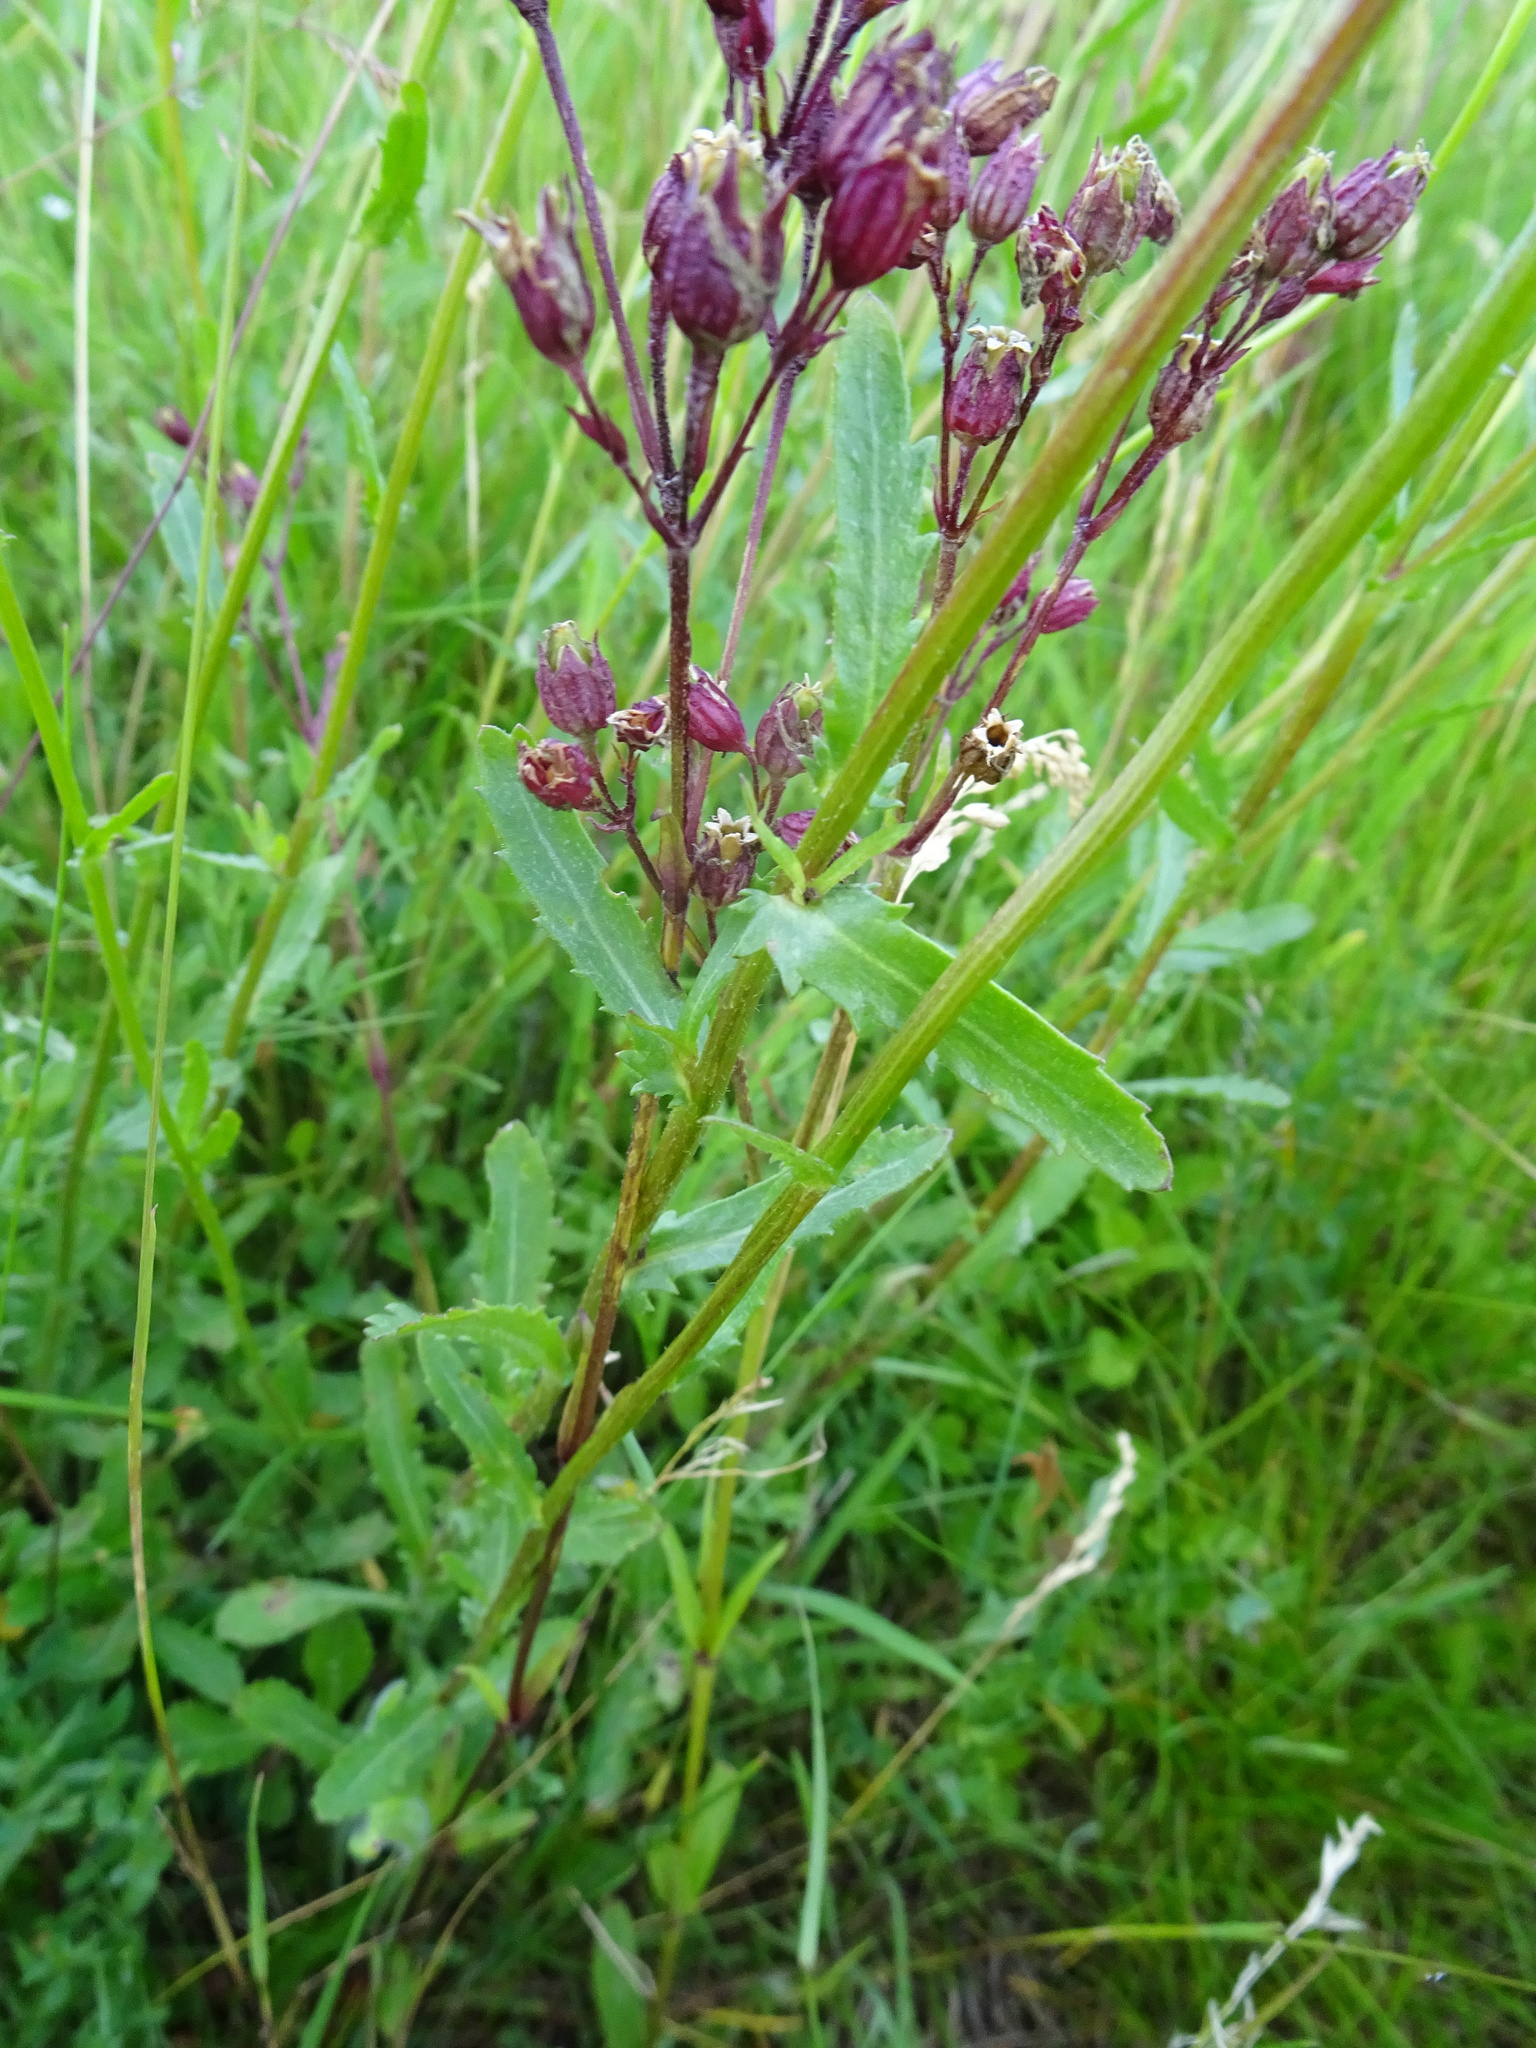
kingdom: Plantae
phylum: Tracheophyta
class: Magnoliopsida
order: Asterales
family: Asteraceae
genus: Leucanthemum
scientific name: Leucanthemum vulgare
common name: Oxeye daisy
